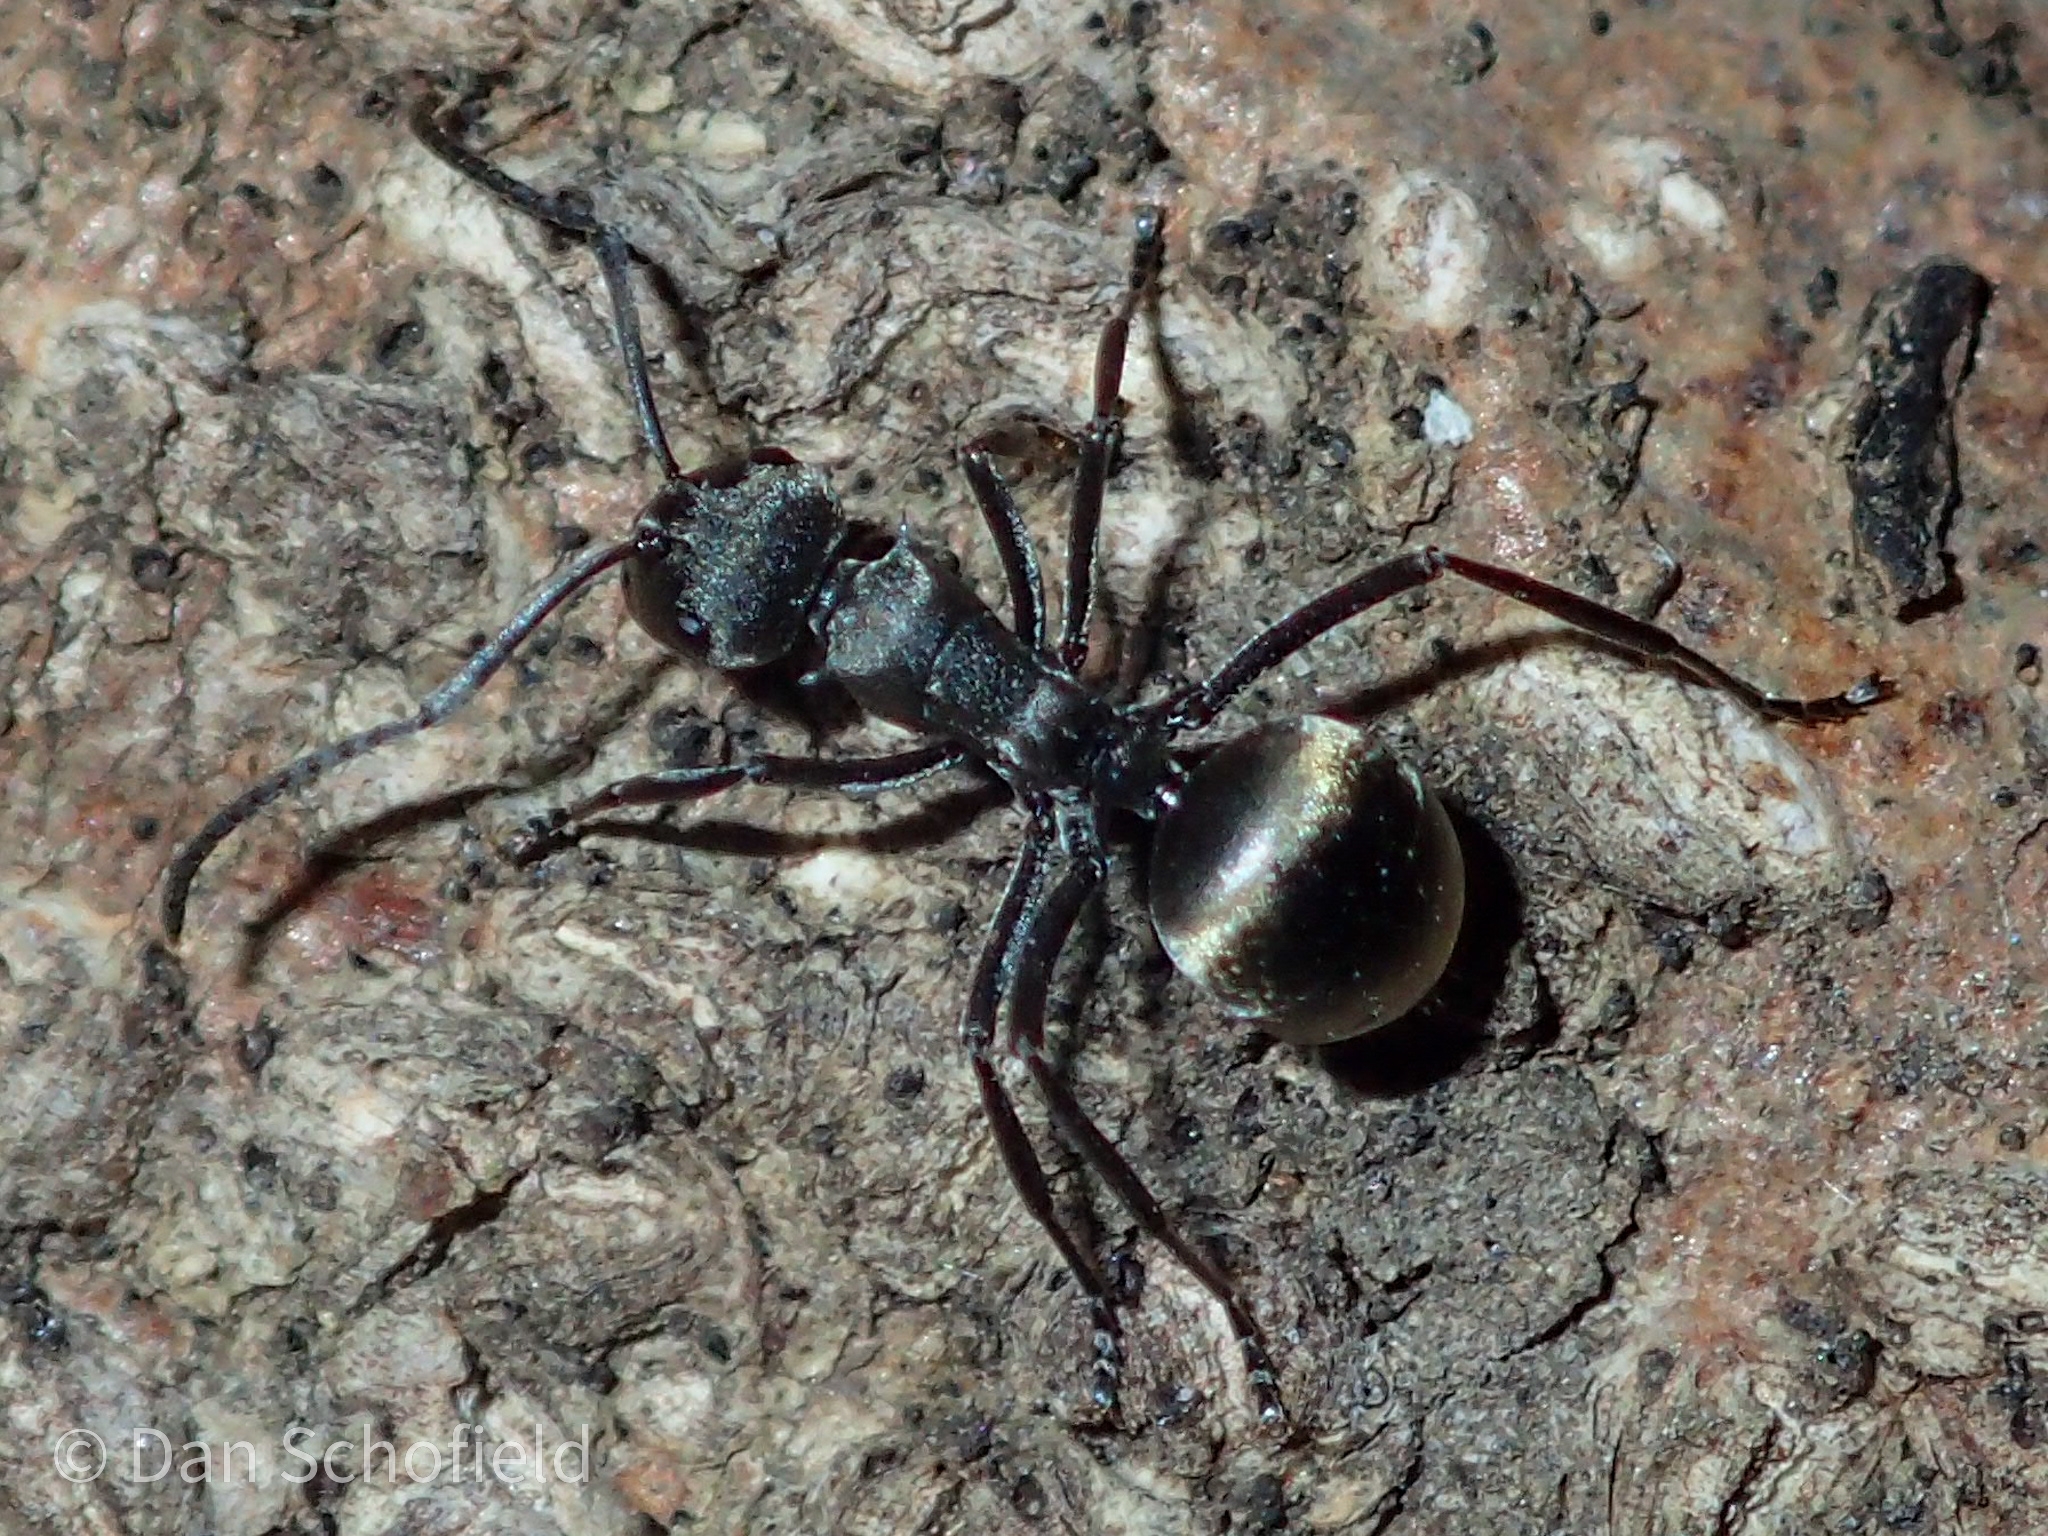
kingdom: Animalia
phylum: Arthropoda
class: Insecta
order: Hymenoptera
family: Formicidae
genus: Polyrhachis
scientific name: Polyrhachis dives
